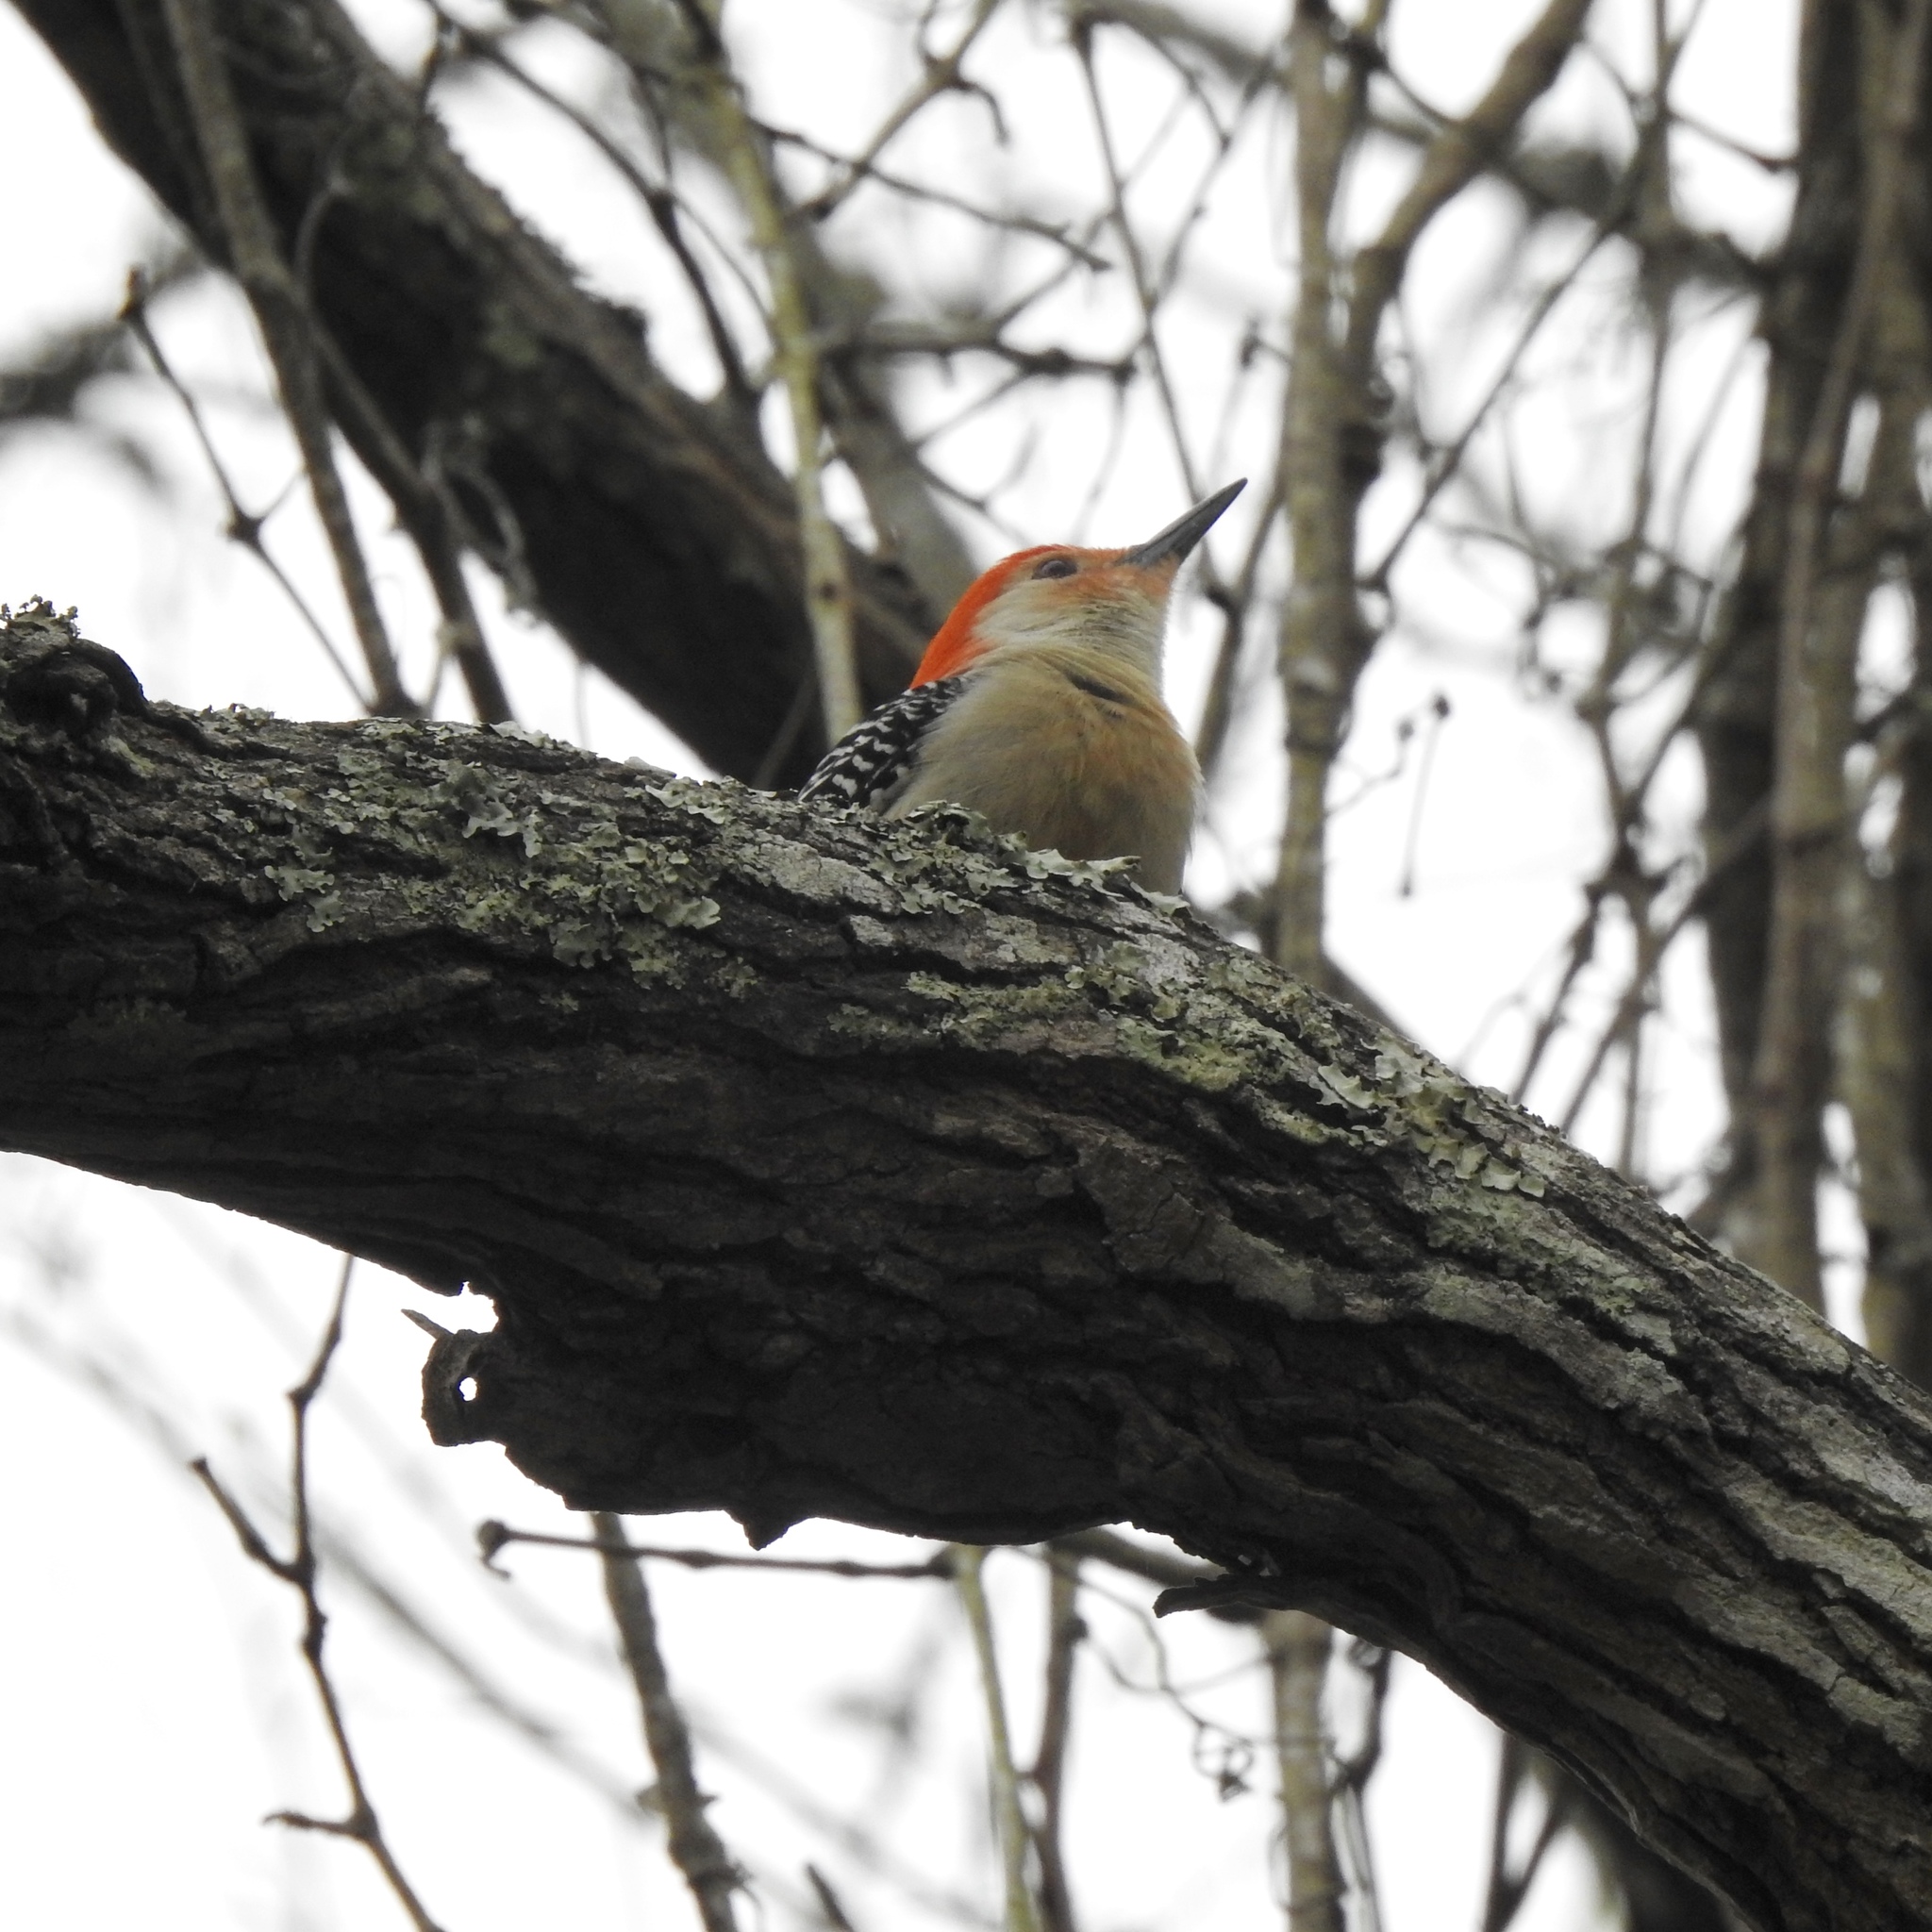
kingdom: Animalia
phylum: Chordata
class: Aves
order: Piciformes
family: Picidae
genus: Melanerpes
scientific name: Melanerpes carolinus
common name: Red-bellied woodpecker
